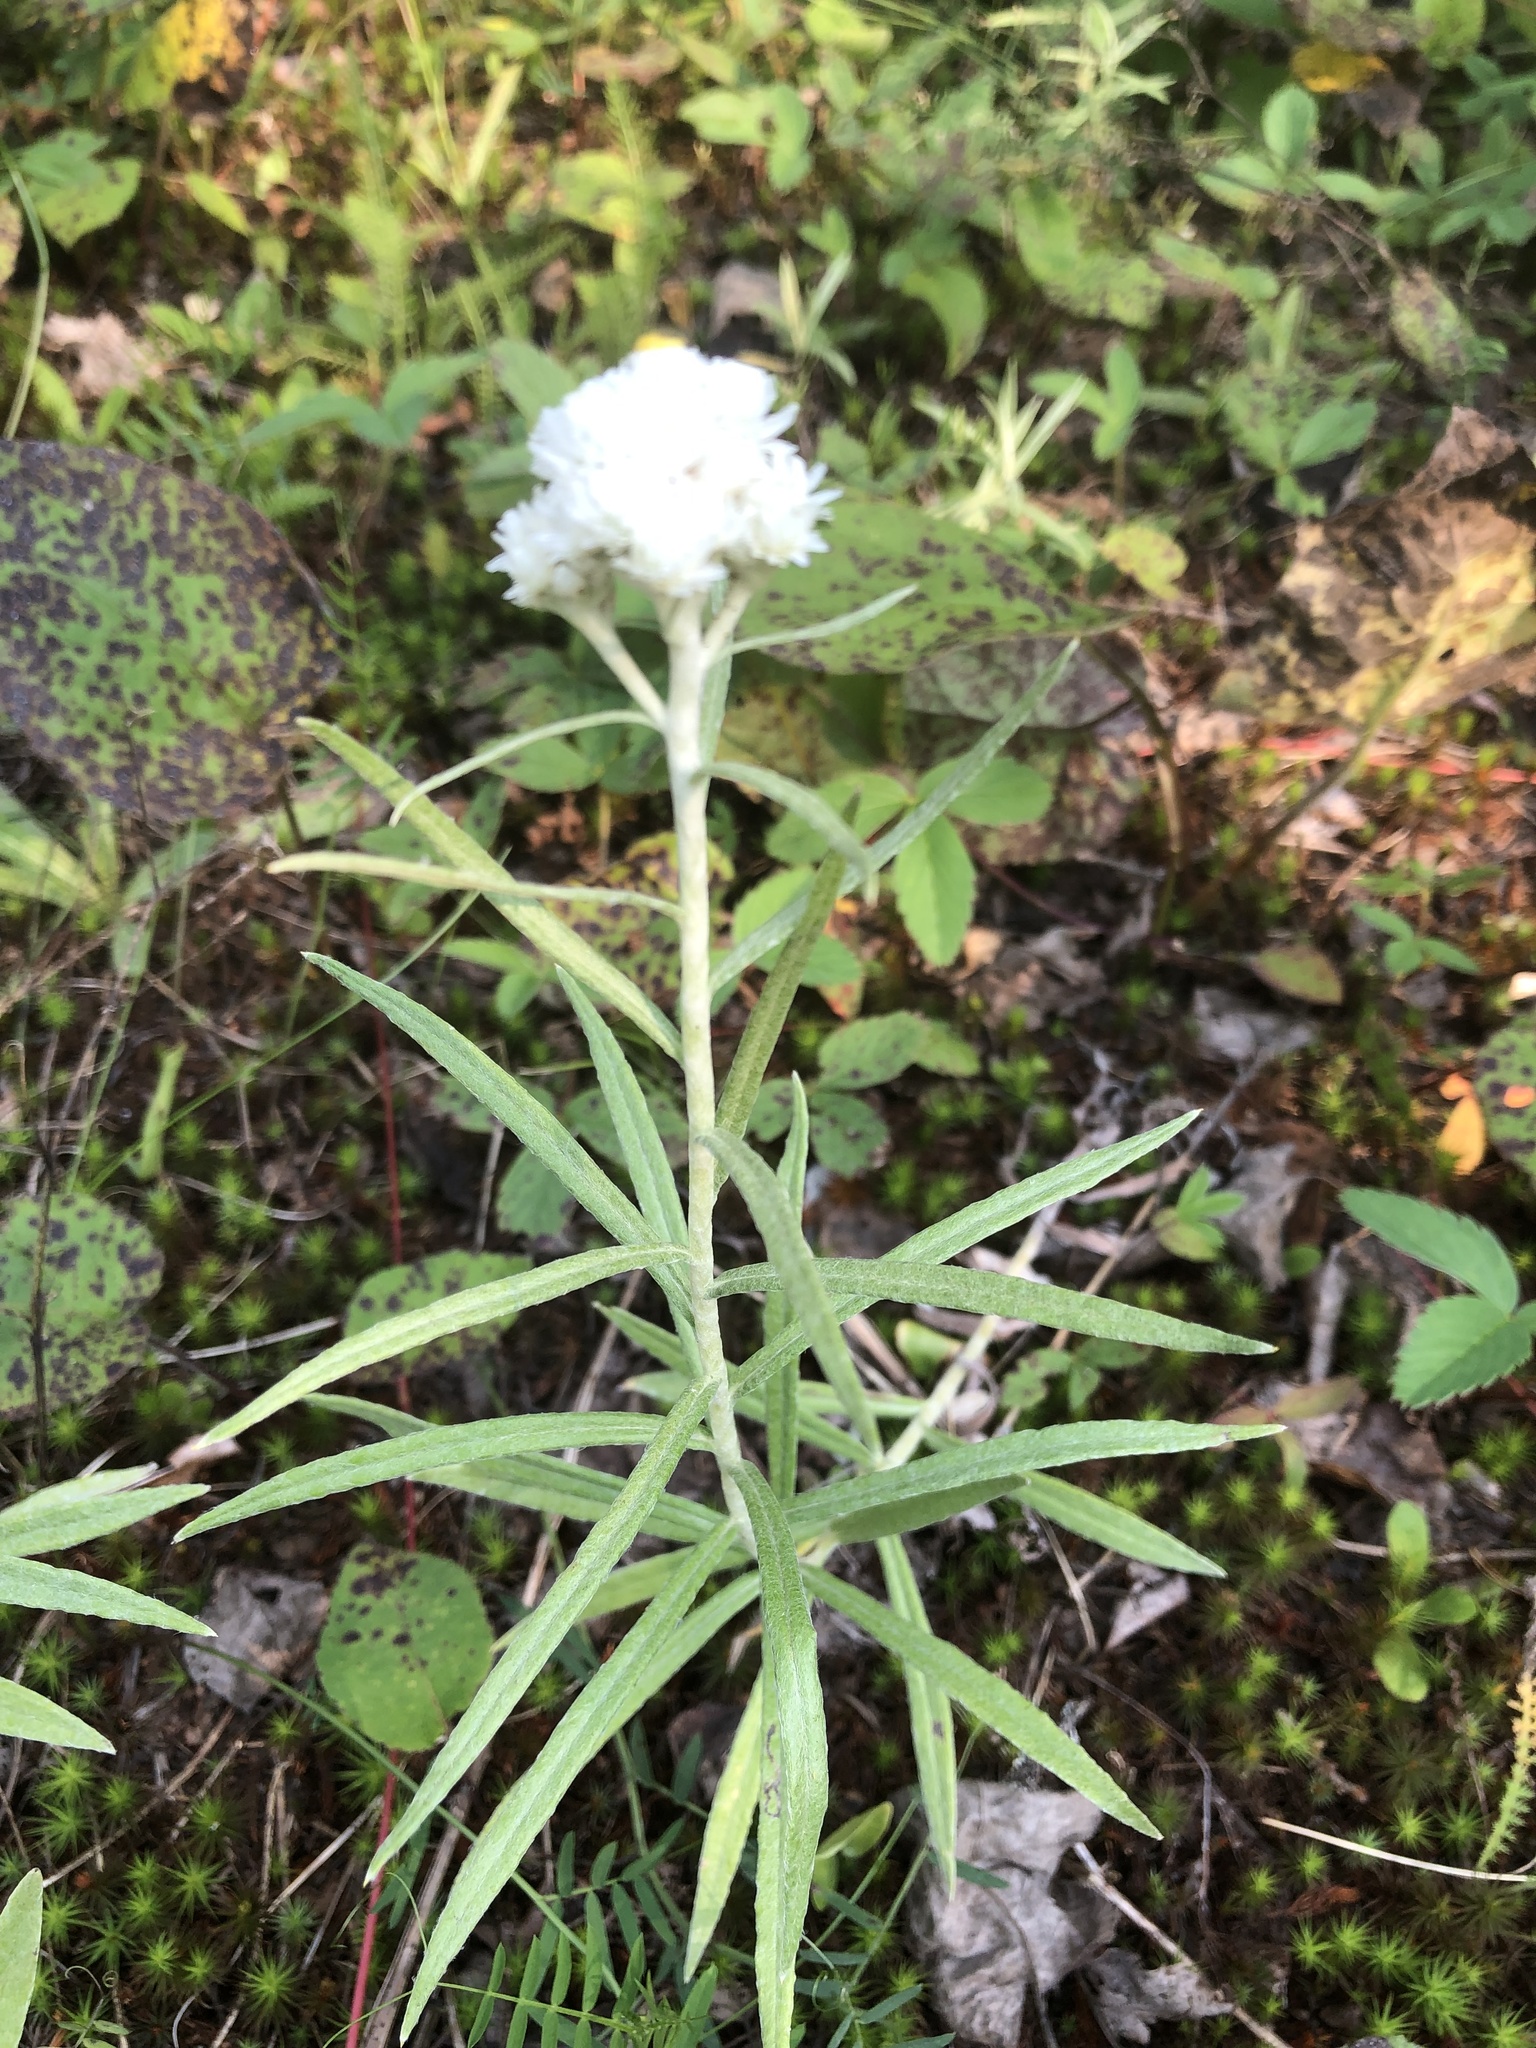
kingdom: Plantae
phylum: Tracheophyta
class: Magnoliopsida
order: Asterales
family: Asteraceae
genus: Anaphalis
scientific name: Anaphalis margaritacea
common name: Pearly everlasting
